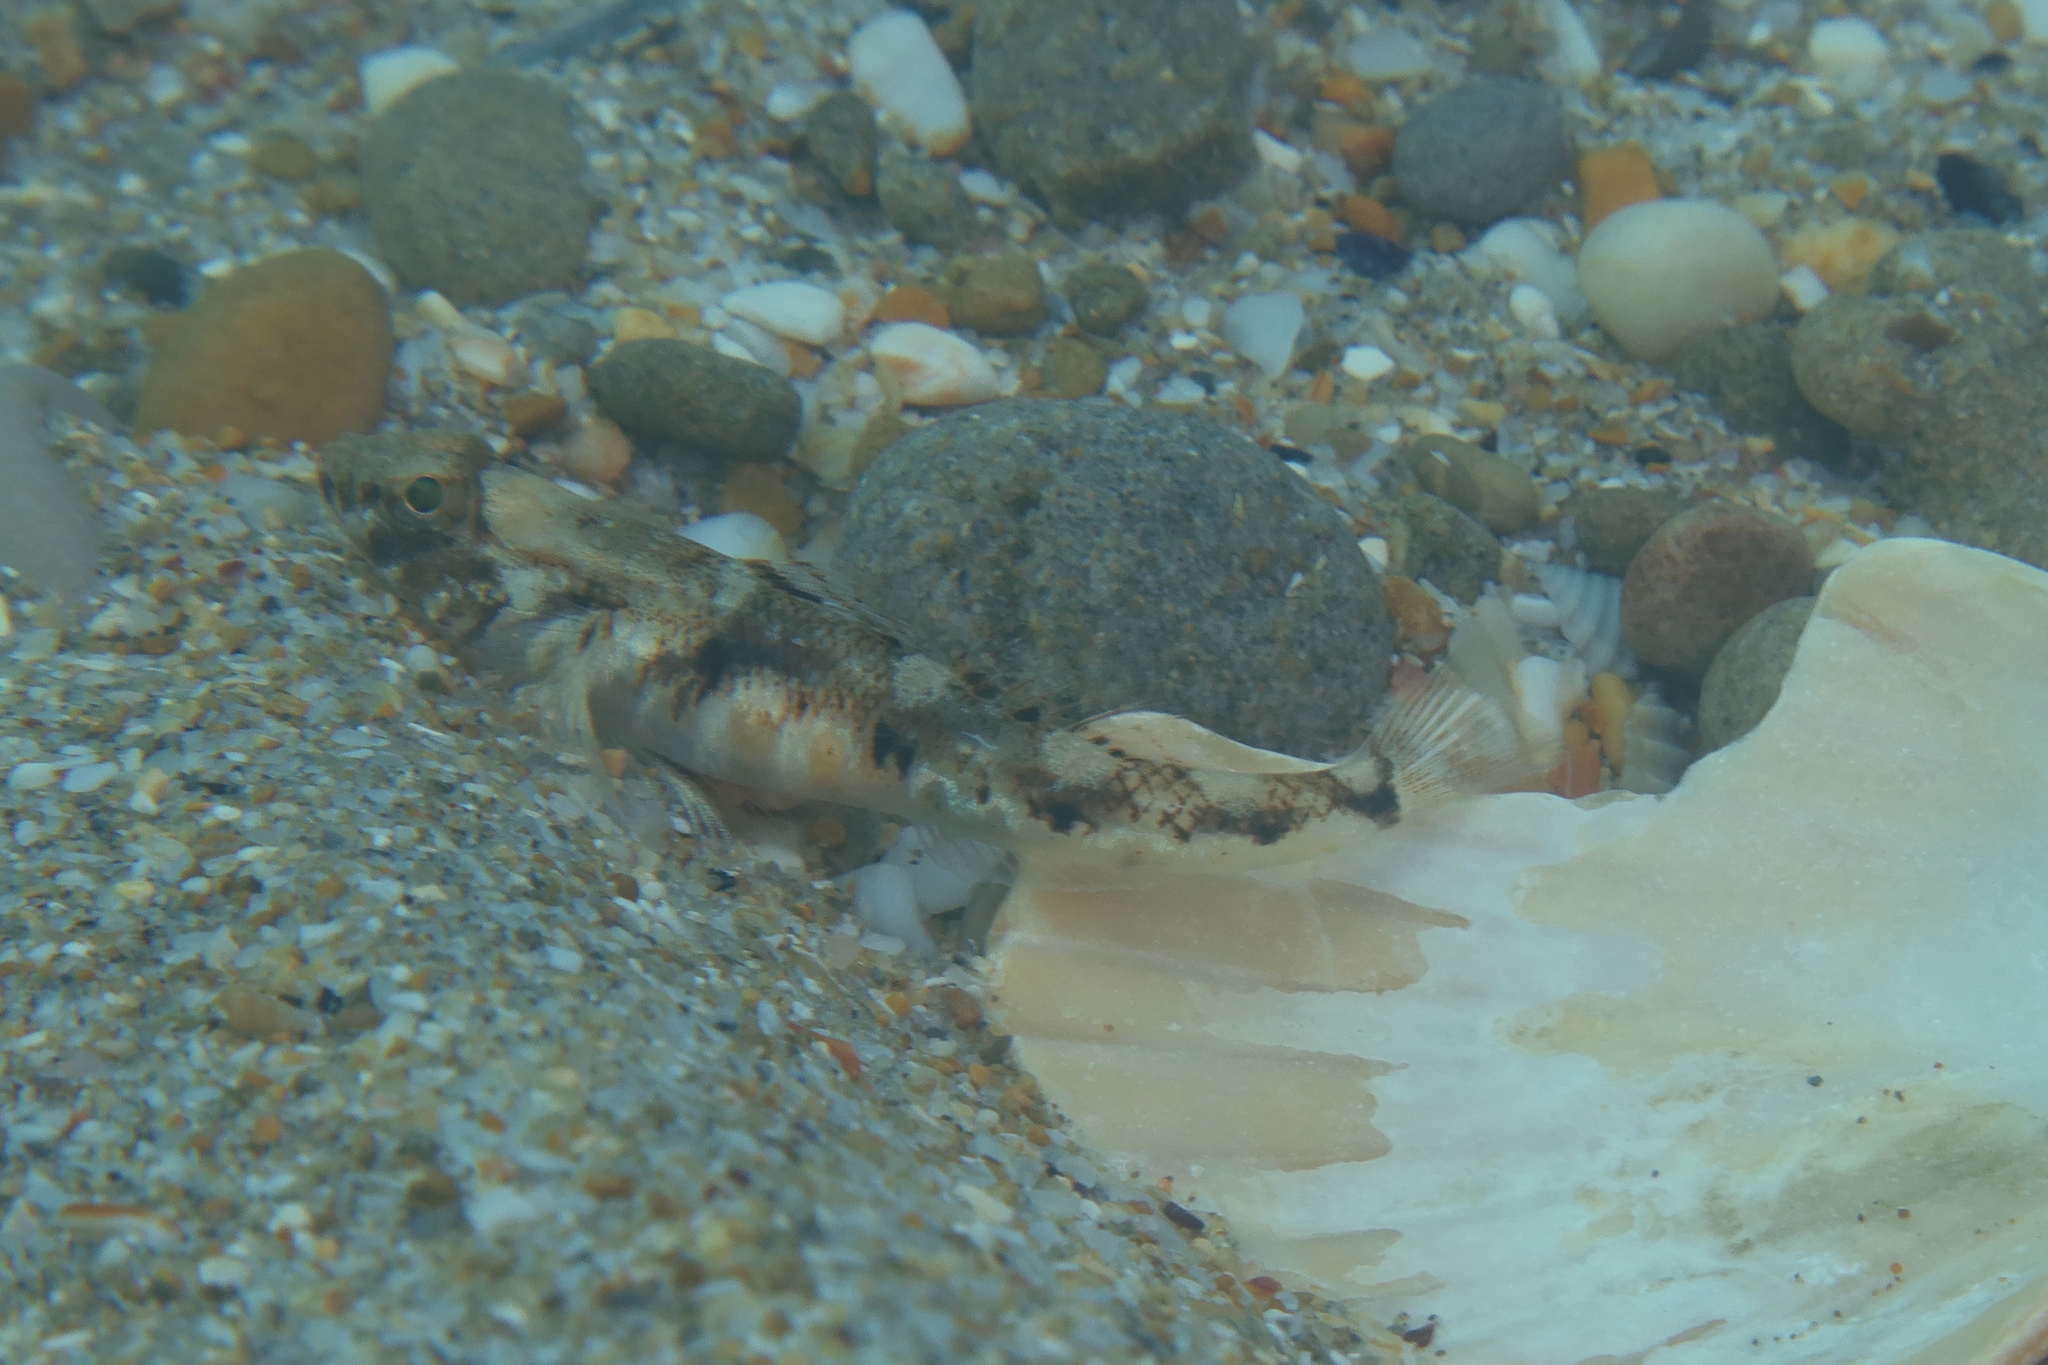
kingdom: Animalia
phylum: Chordata
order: Perciformes
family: Gobiidae
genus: Pomatoschistus
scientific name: Pomatoschistus pictus
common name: Painted goby
